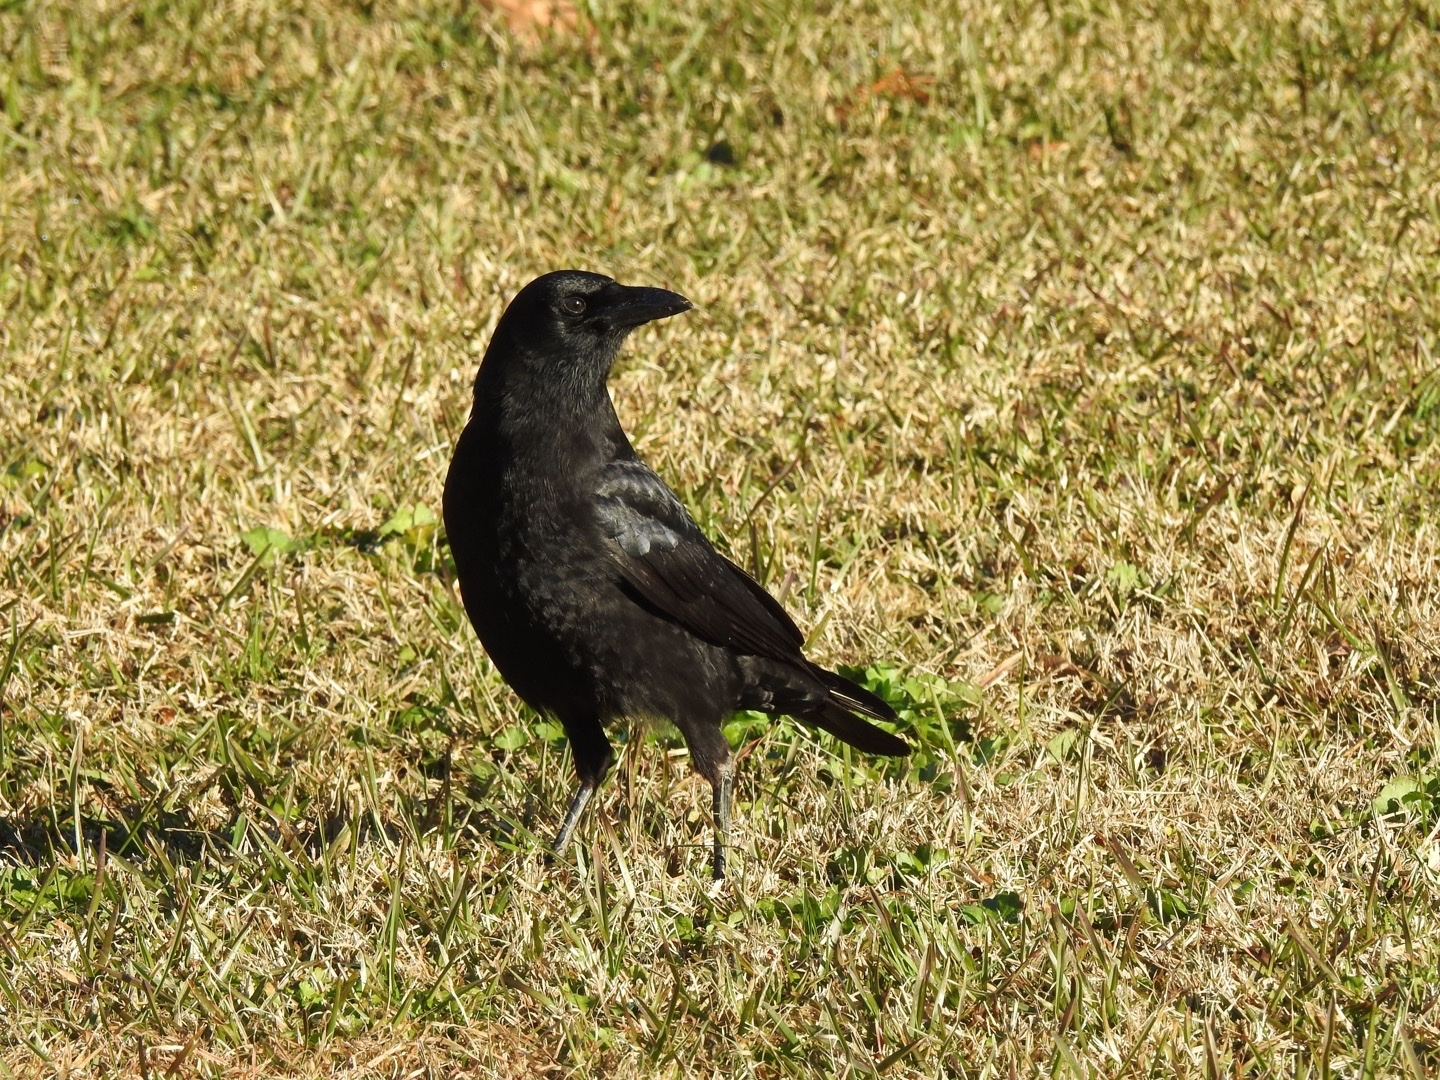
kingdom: Animalia
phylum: Chordata
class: Aves
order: Passeriformes
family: Corvidae
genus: Corvus
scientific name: Corvus brachyrhynchos
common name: American crow
